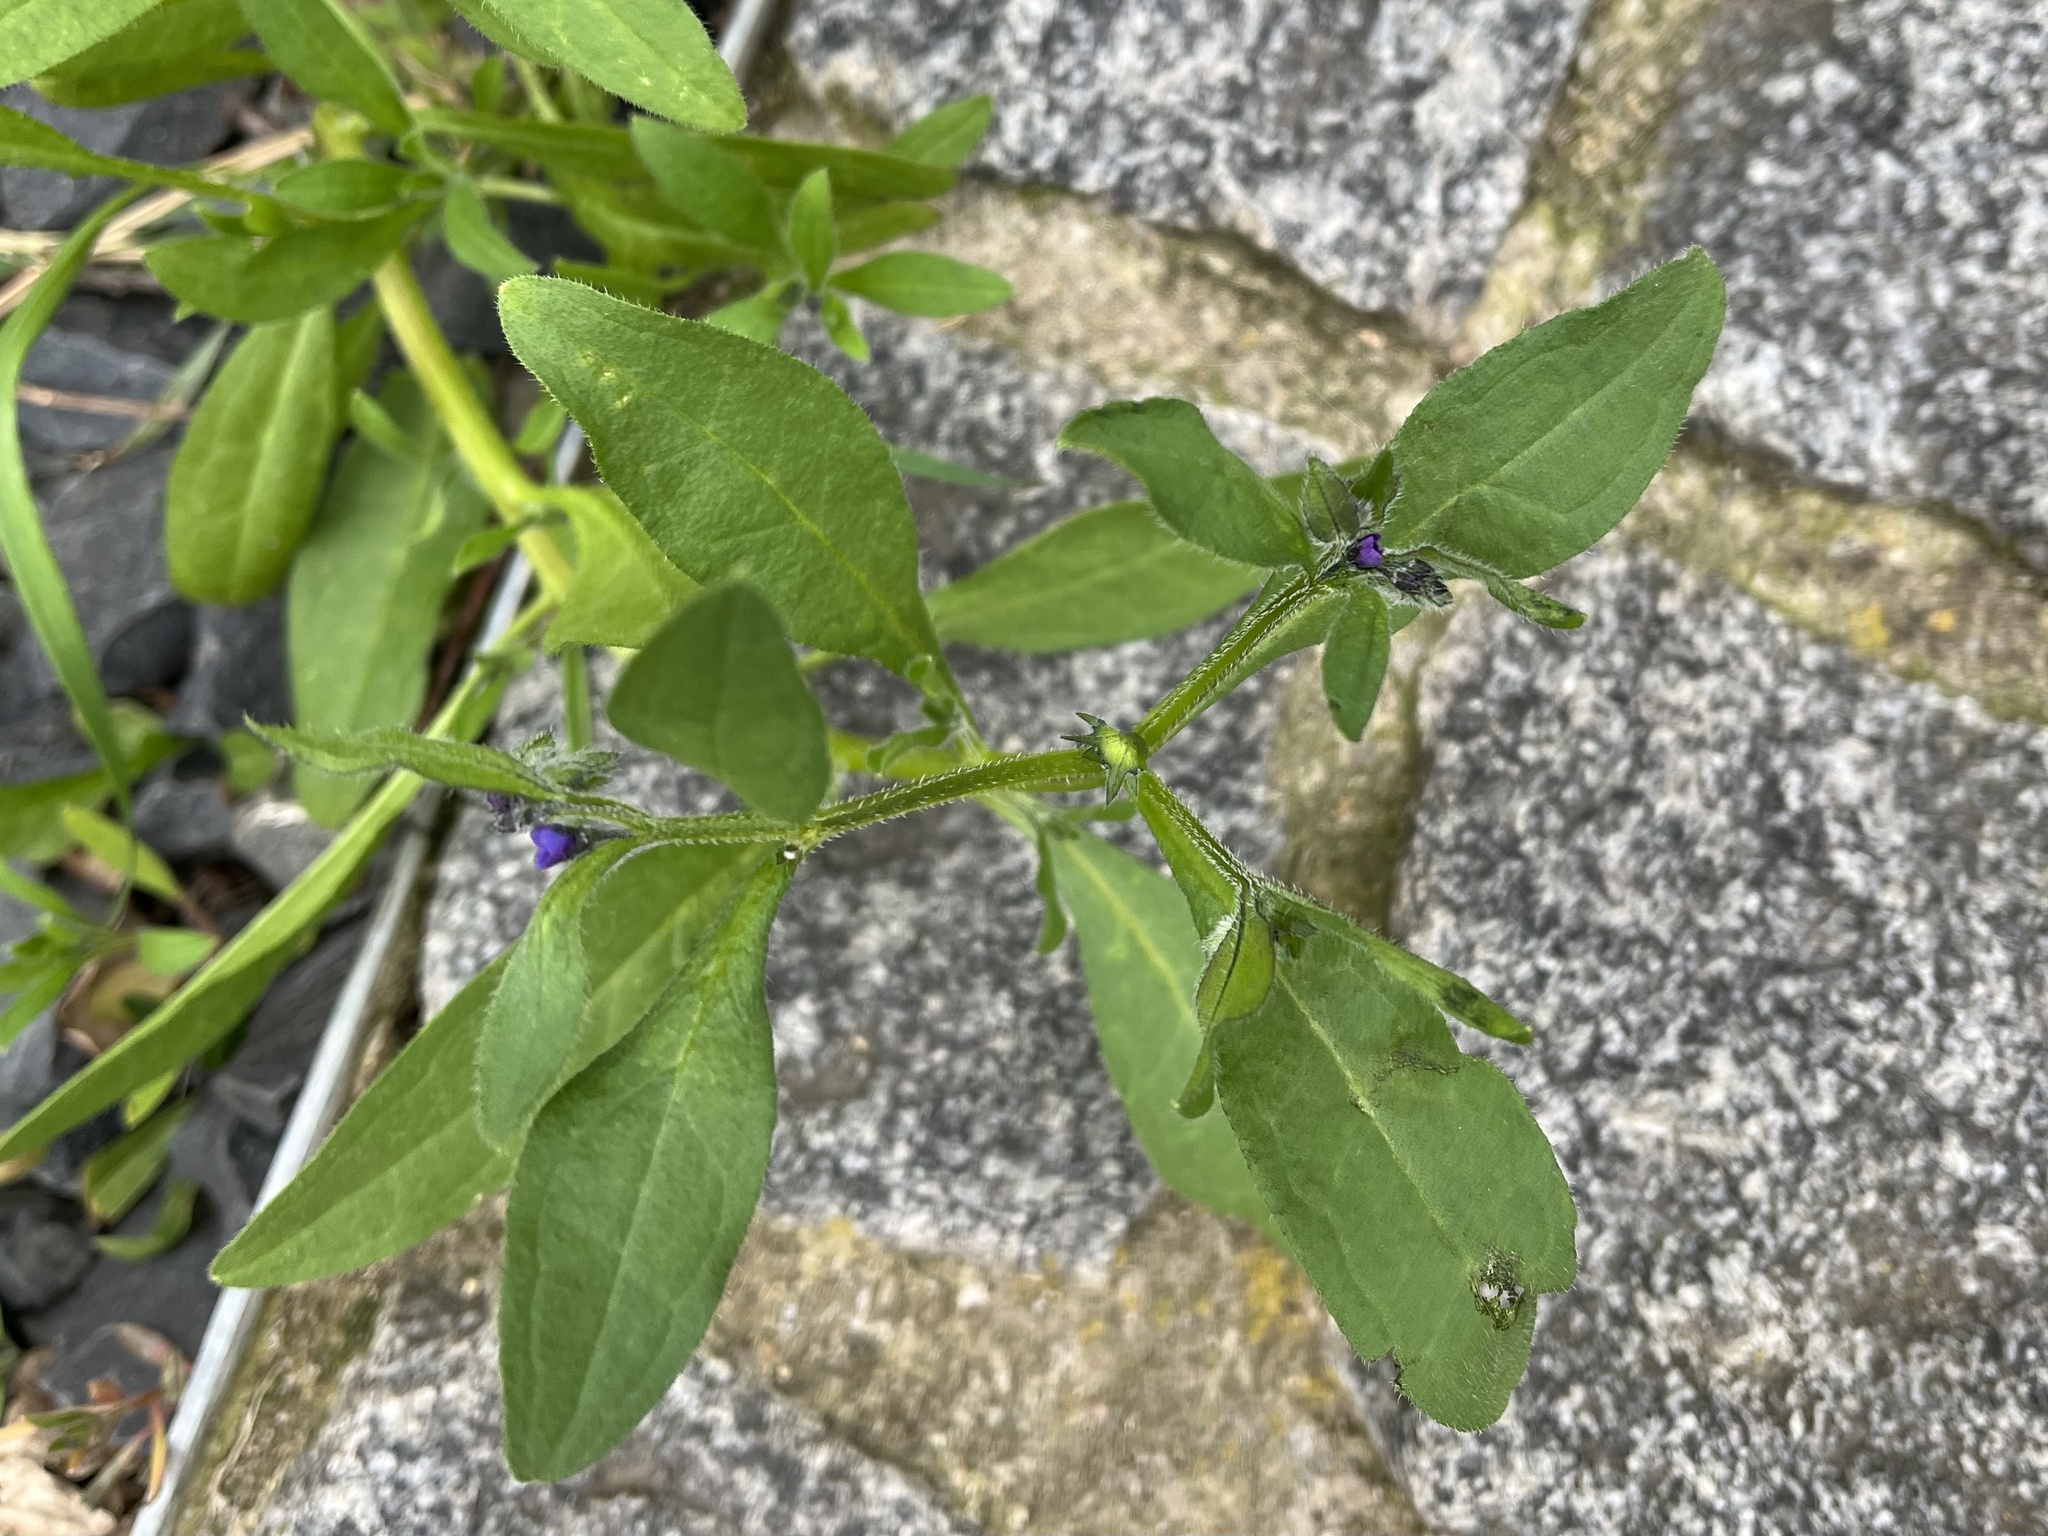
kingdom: Plantae
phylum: Tracheophyta
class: Magnoliopsida
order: Boraginales
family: Boraginaceae
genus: Asperugo
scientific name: Asperugo procumbens
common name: Madwort
